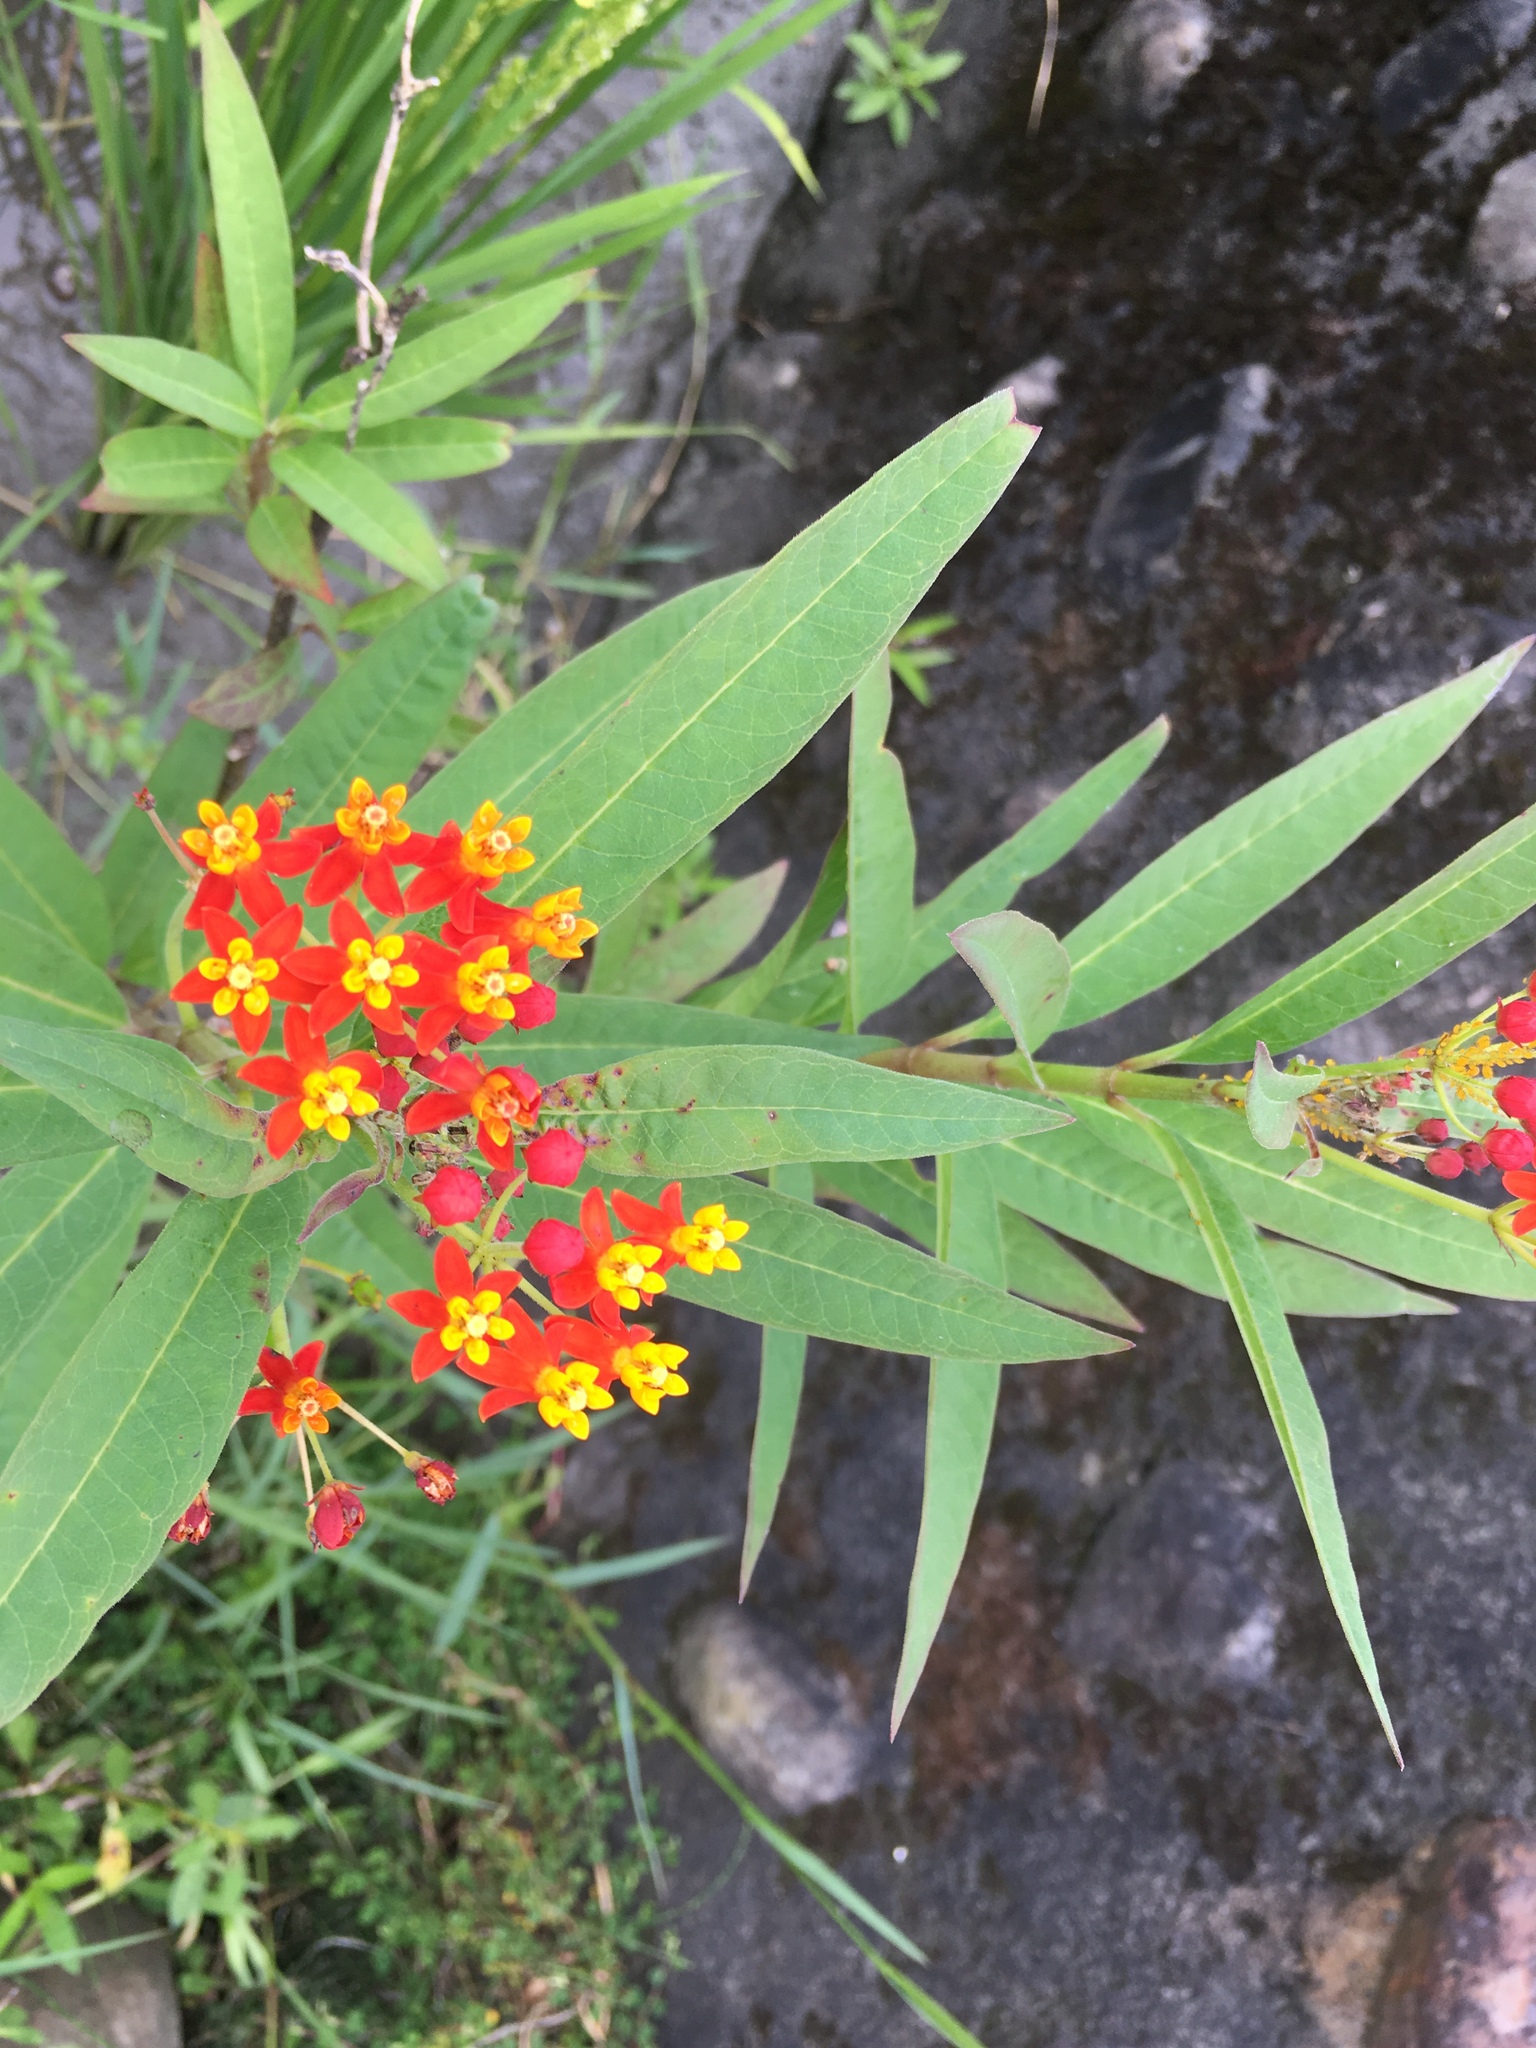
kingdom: Plantae
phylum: Tracheophyta
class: Magnoliopsida
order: Gentianales
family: Apocynaceae
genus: Asclepias
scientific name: Asclepias curassavica
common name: Bloodflower
